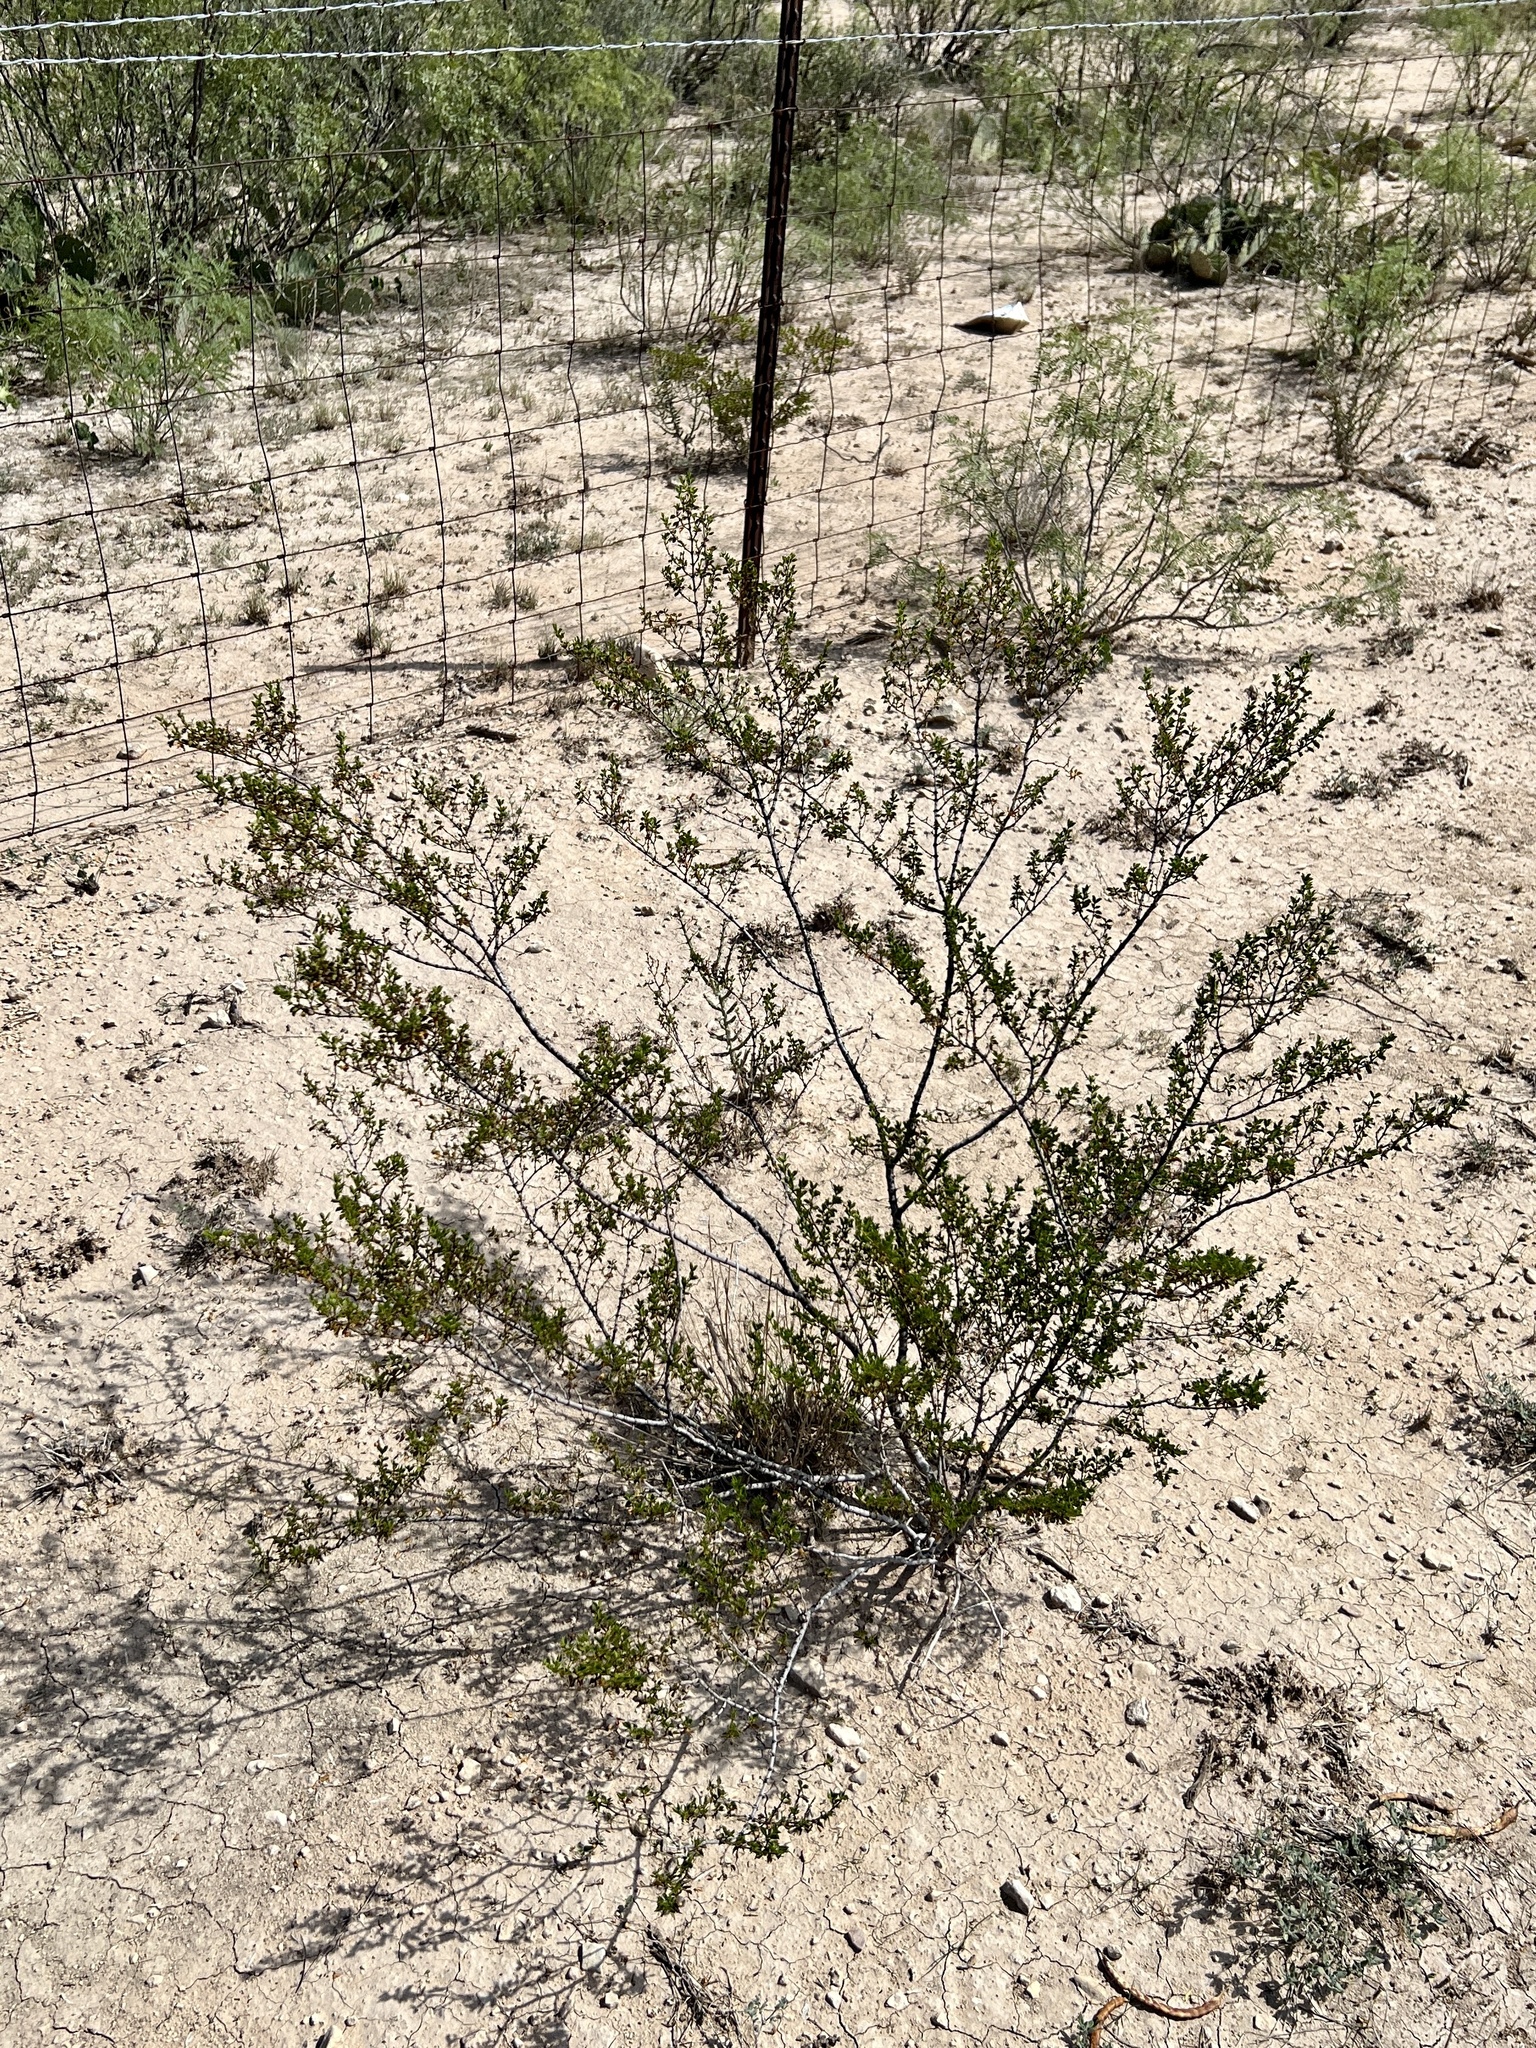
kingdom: Plantae
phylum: Tracheophyta
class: Magnoliopsida
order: Zygophyllales
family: Zygophyllaceae
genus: Larrea
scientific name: Larrea tridentata
